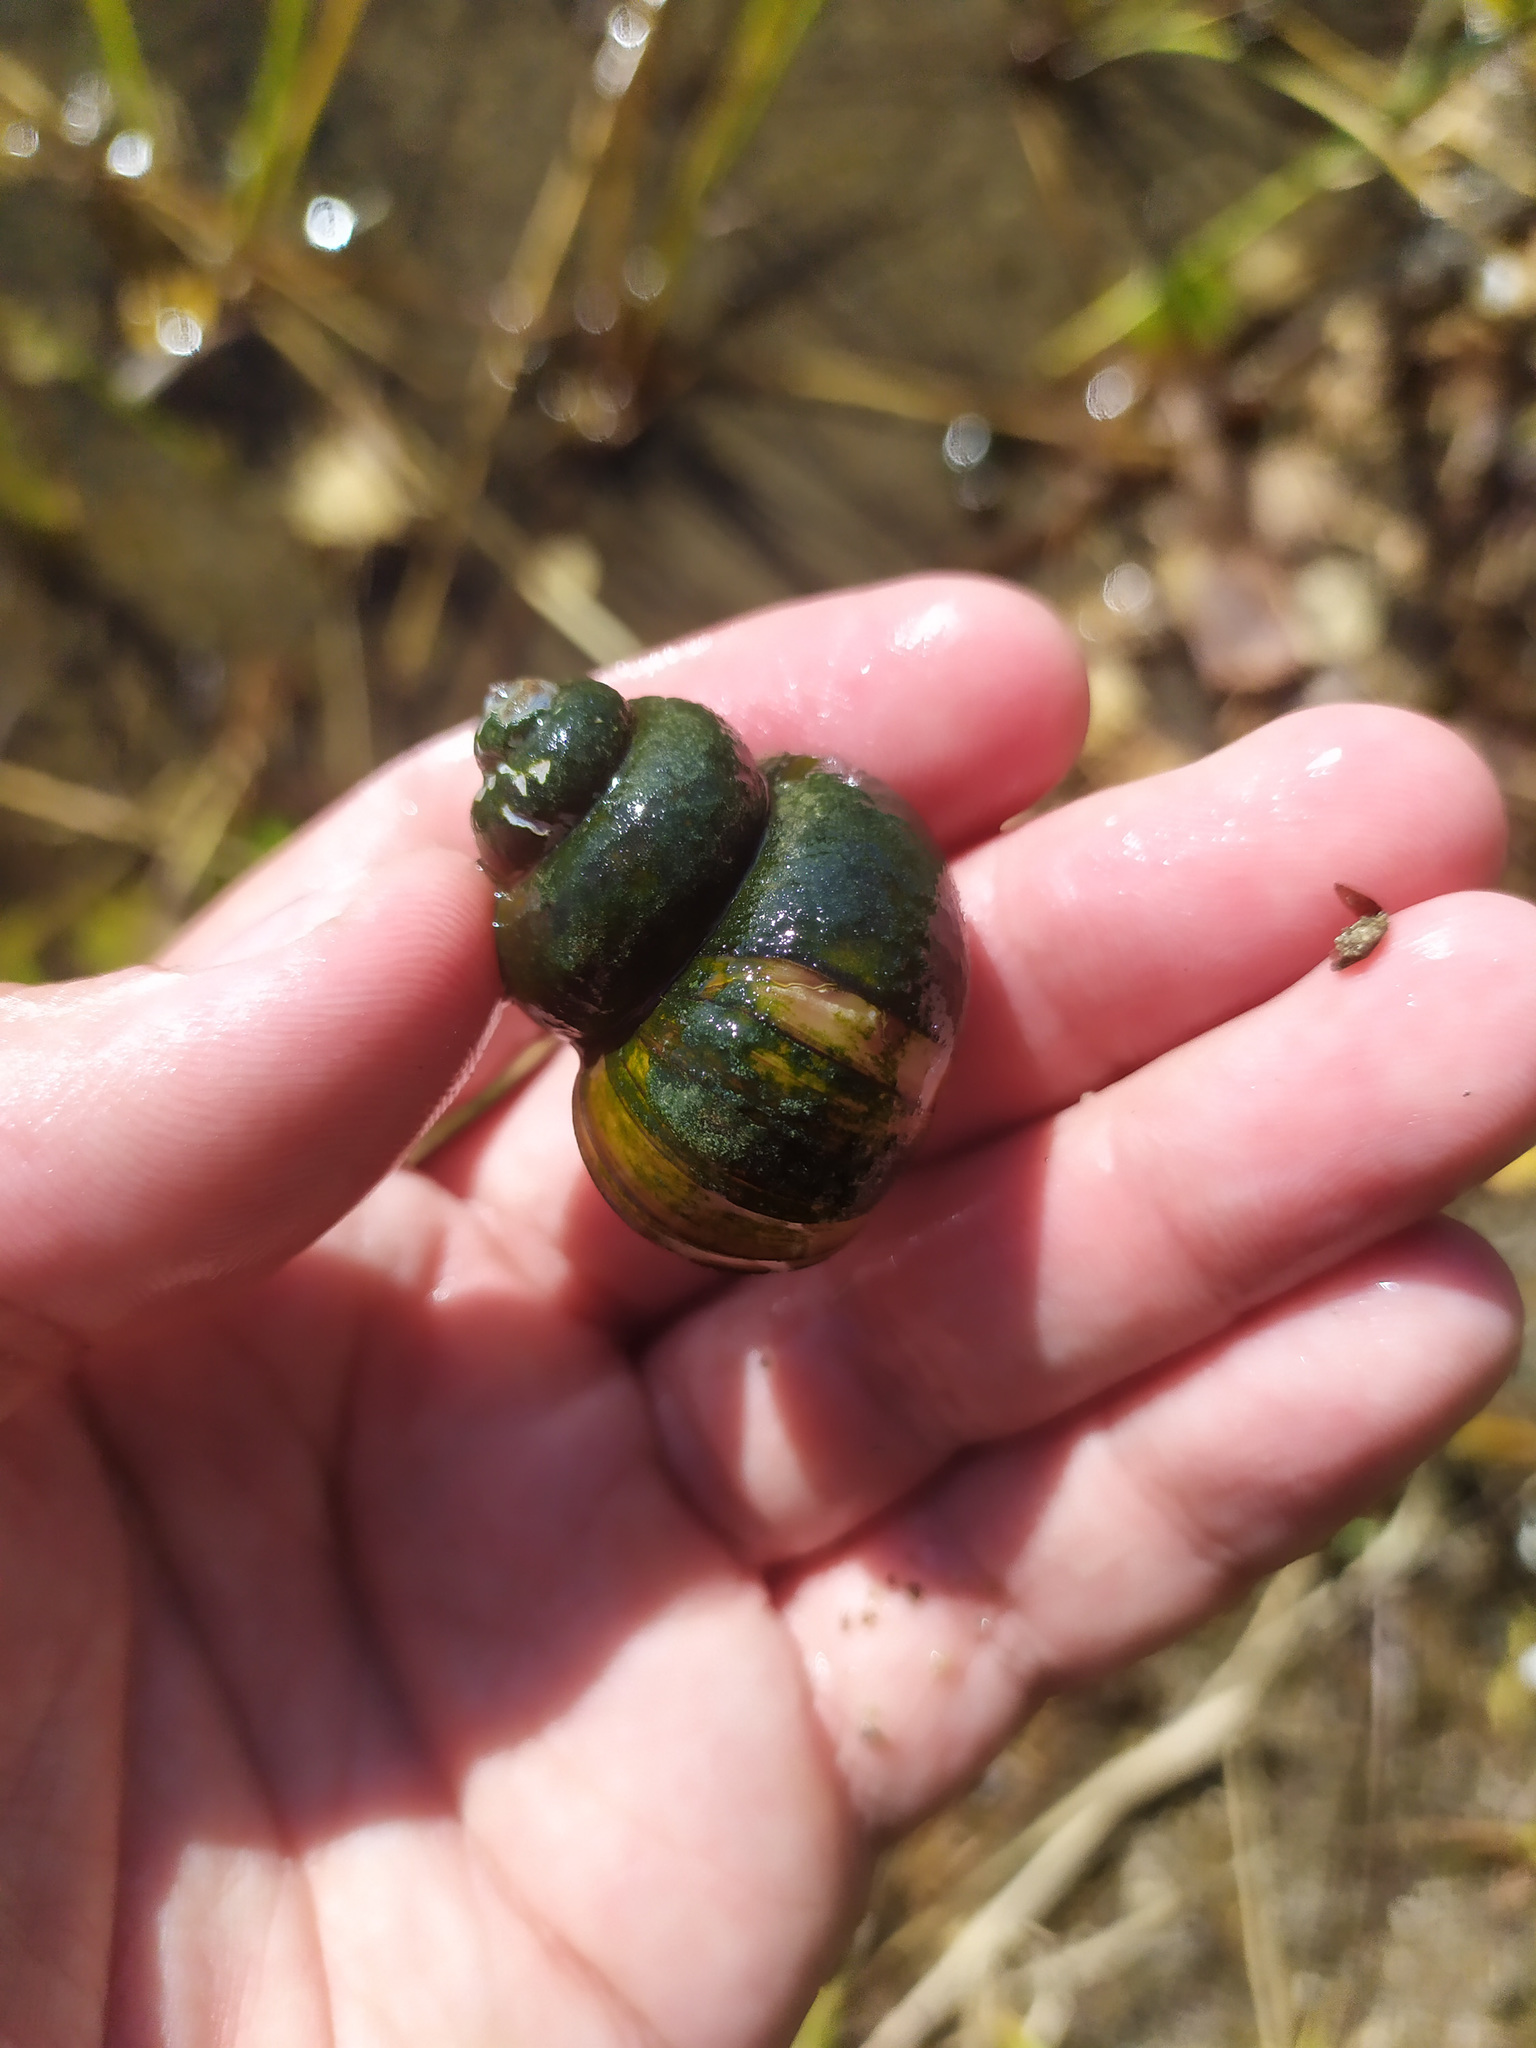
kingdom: Animalia
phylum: Mollusca
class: Gastropoda
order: Architaenioglossa
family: Viviparidae
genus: Viviparus
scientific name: Viviparus contectus
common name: Lister's river snail
